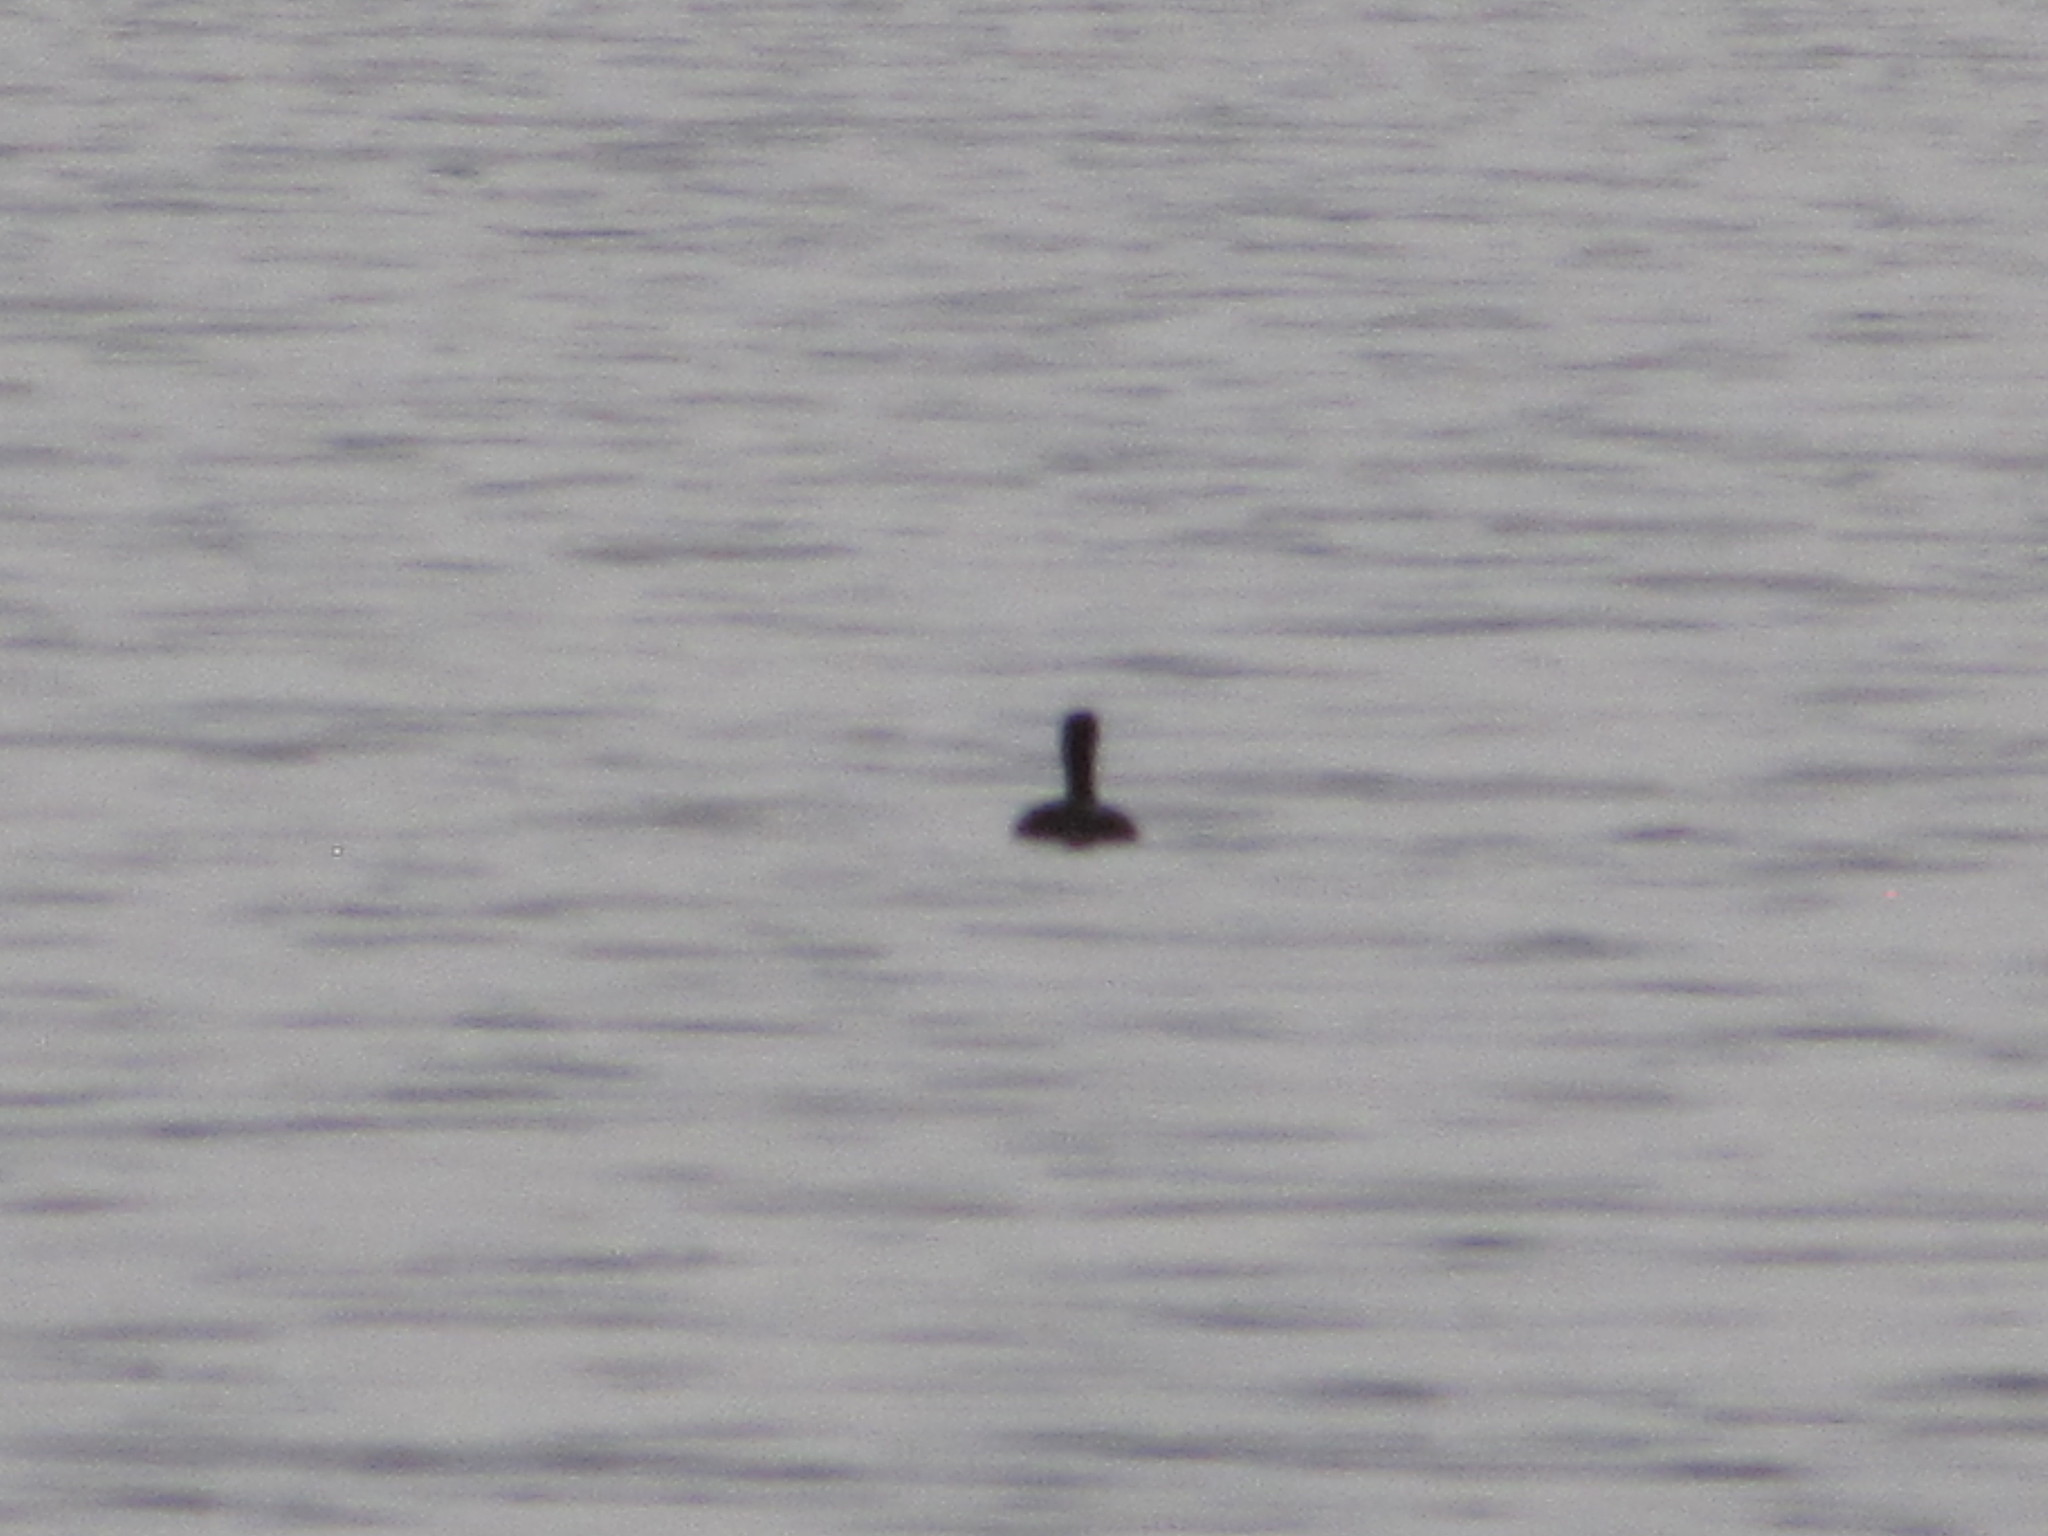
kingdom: Animalia
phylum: Chordata
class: Aves
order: Podicipediformes
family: Podicipedidae
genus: Podilymbus
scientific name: Podilymbus podiceps
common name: Pied-billed grebe
